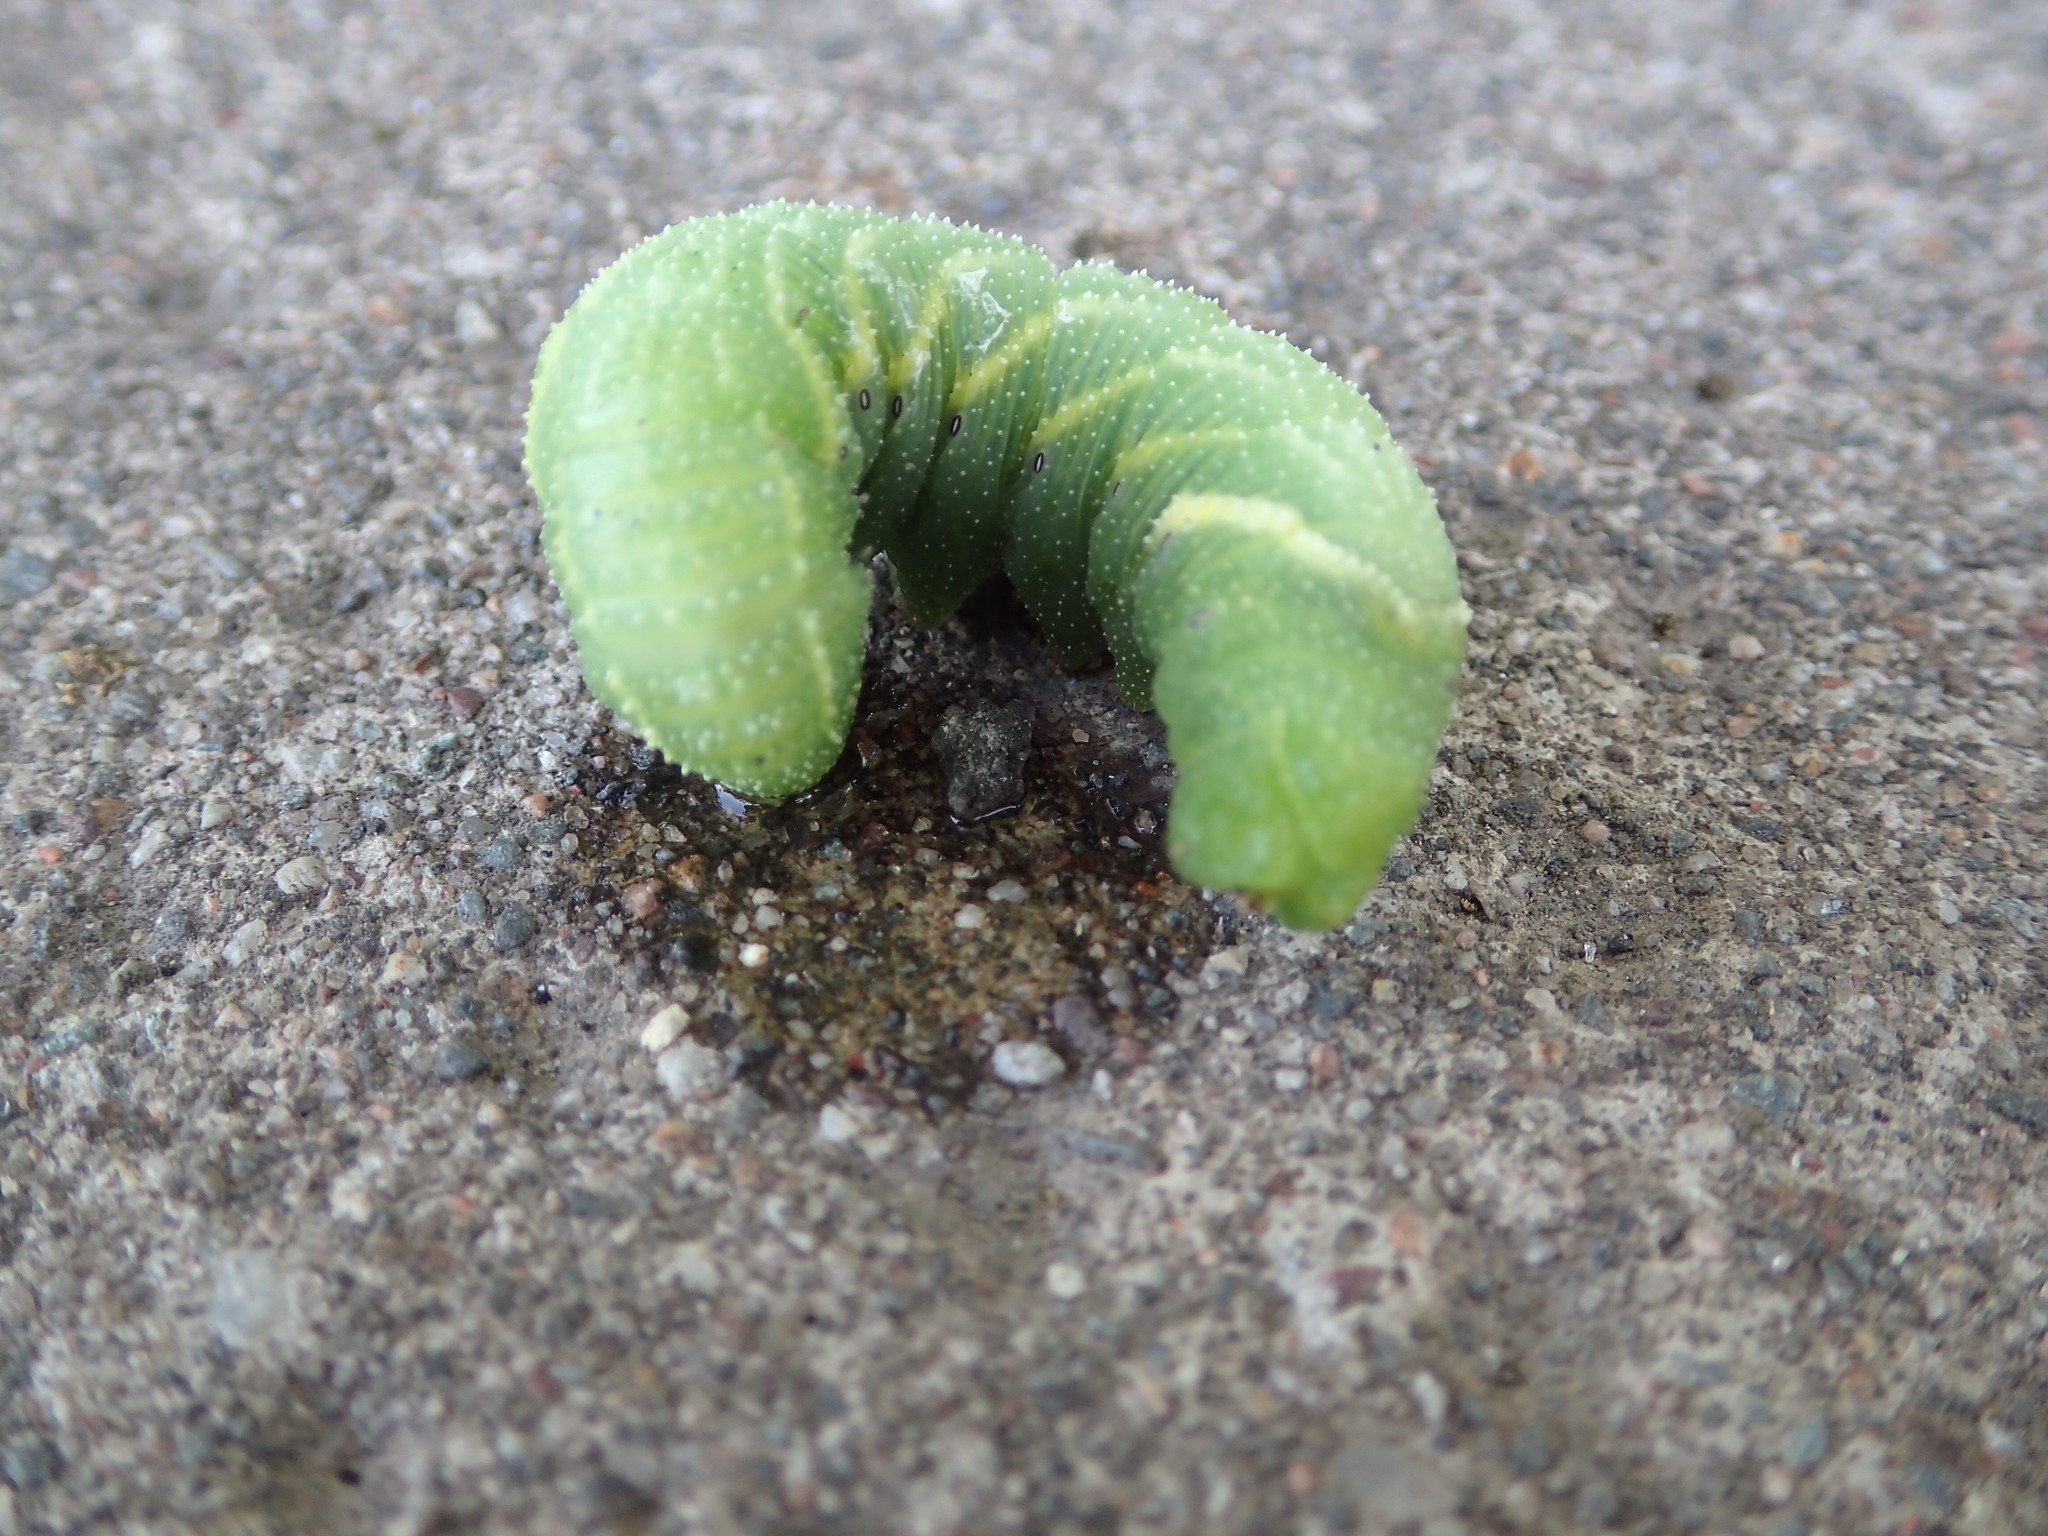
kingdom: Animalia
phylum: Arthropoda
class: Insecta
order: Lepidoptera
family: Sphingidae
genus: Pachysphinx
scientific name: Pachysphinx modesta
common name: Big poplar sphinx
